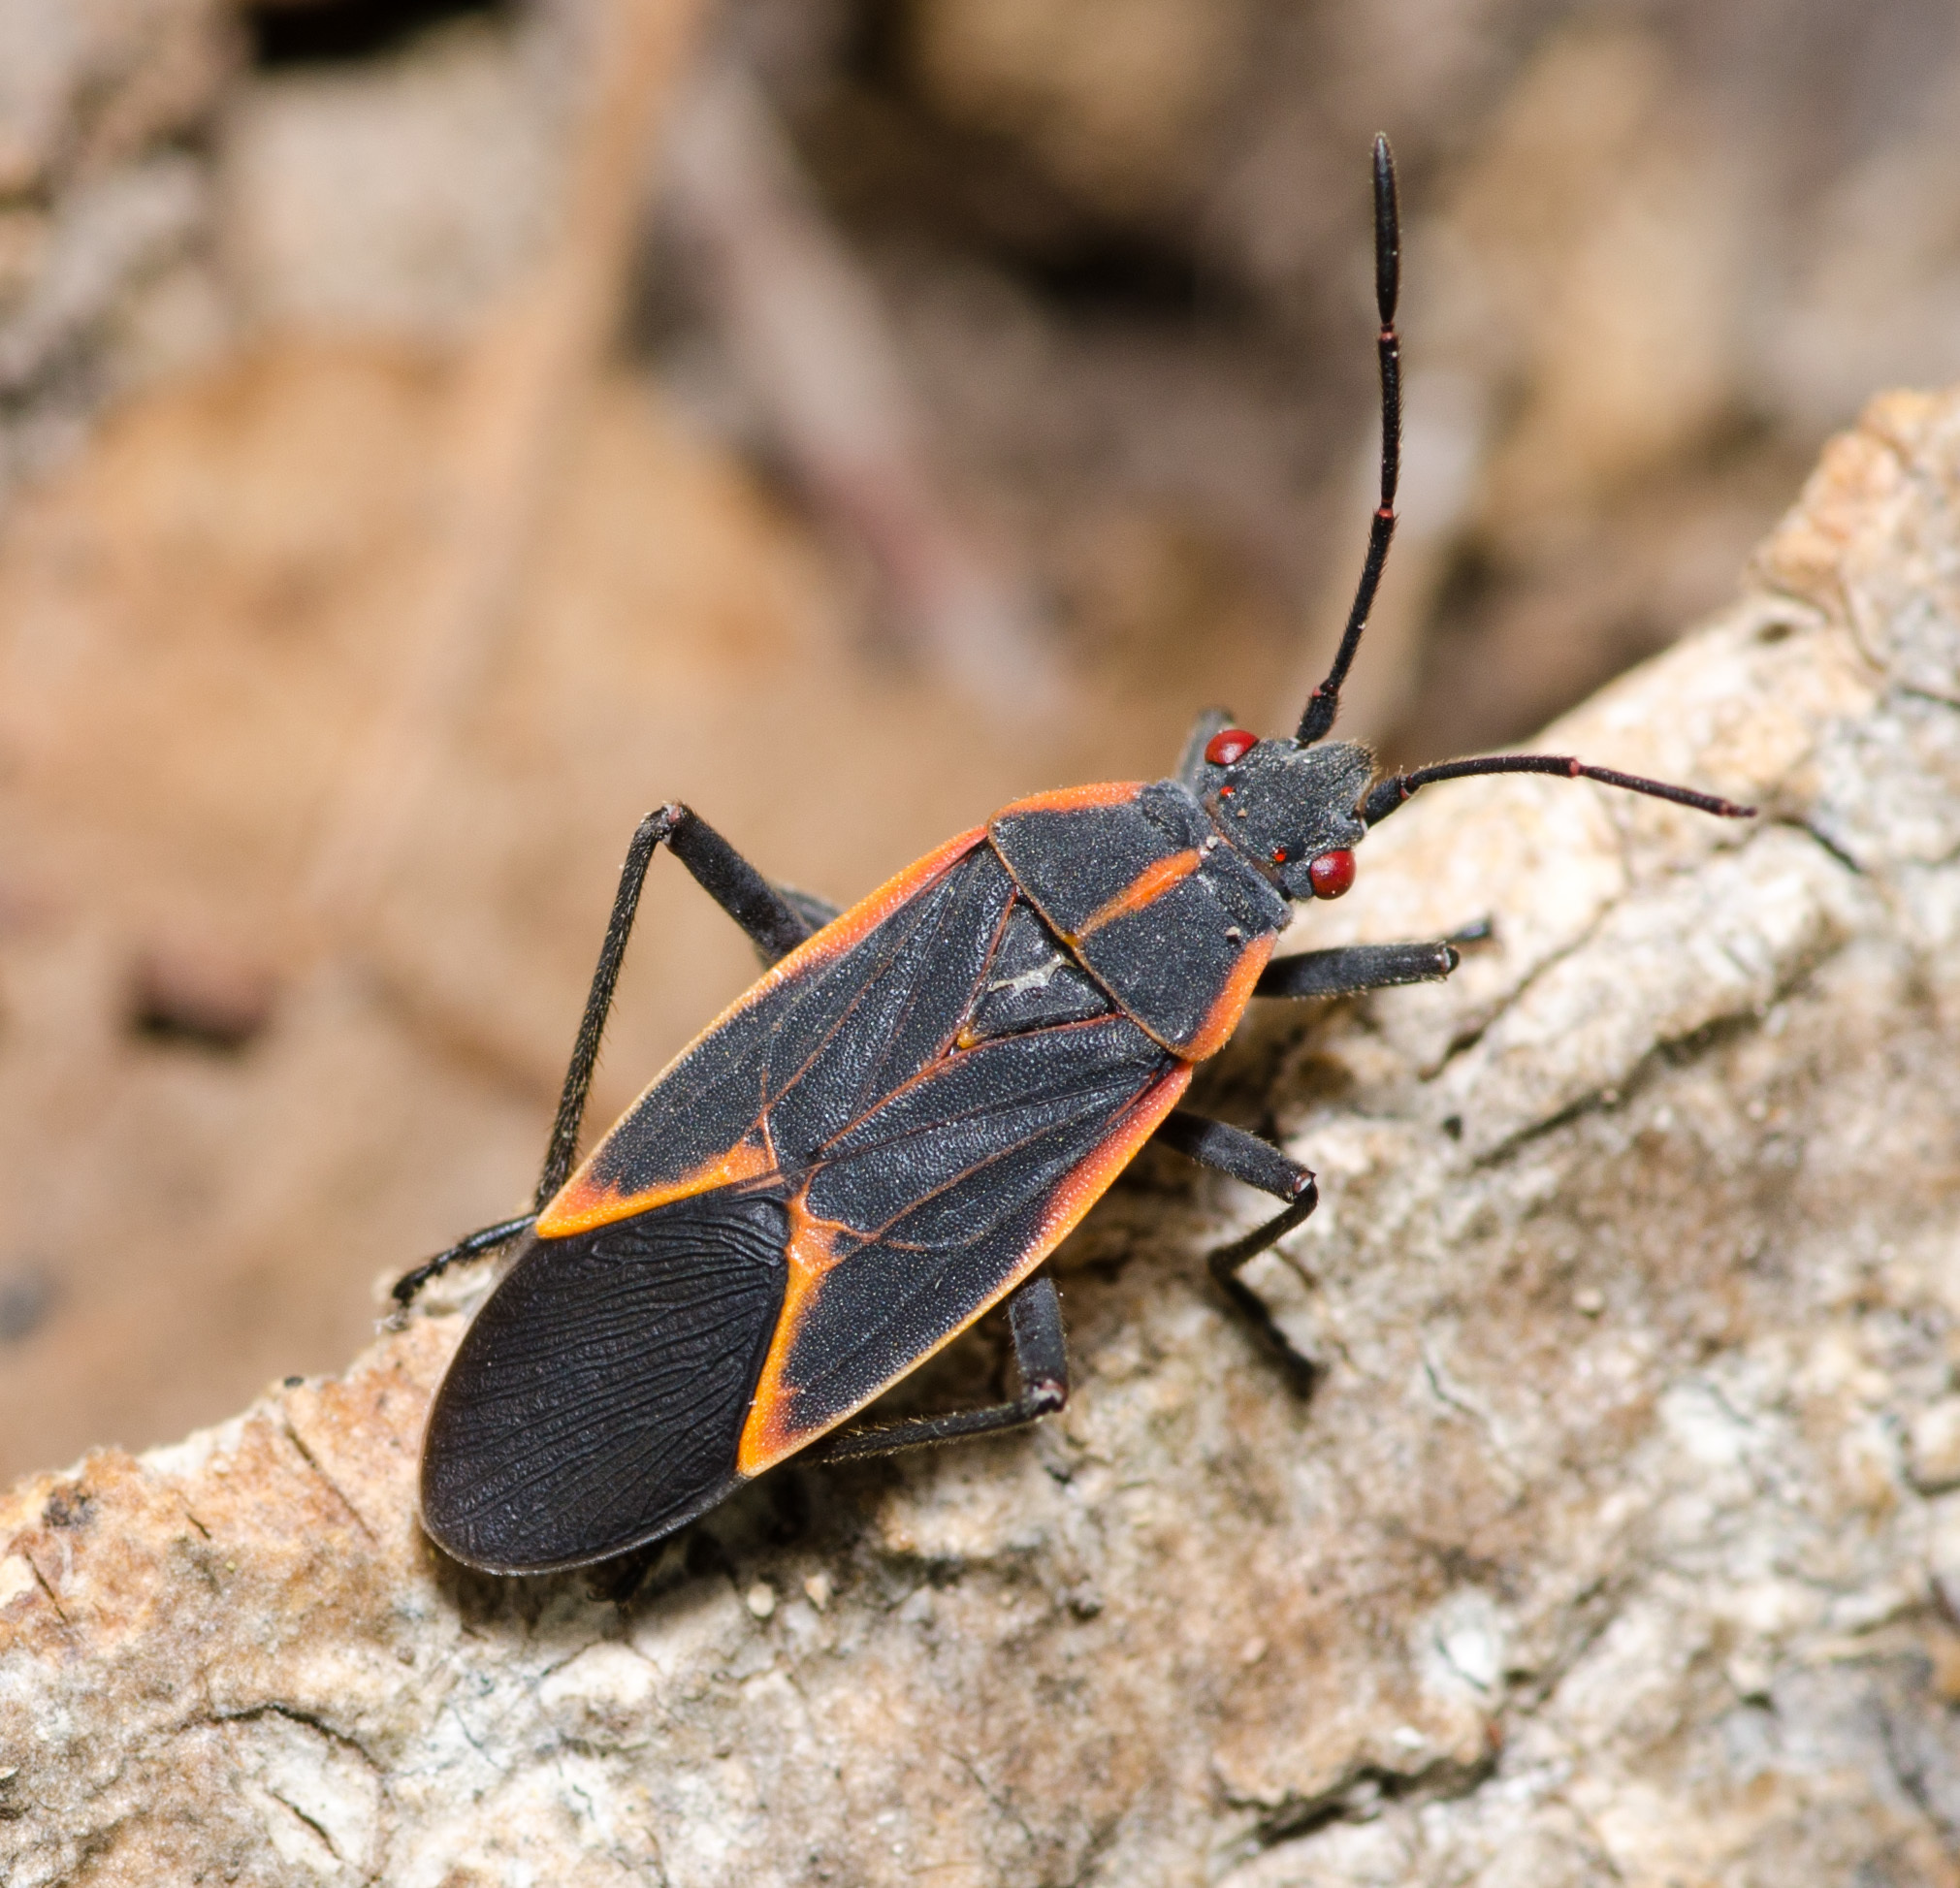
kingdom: Animalia
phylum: Arthropoda
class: Insecta
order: Hemiptera
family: Rhopalidae
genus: Boisea
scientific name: Boisea trivittata
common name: Boxelder bug
